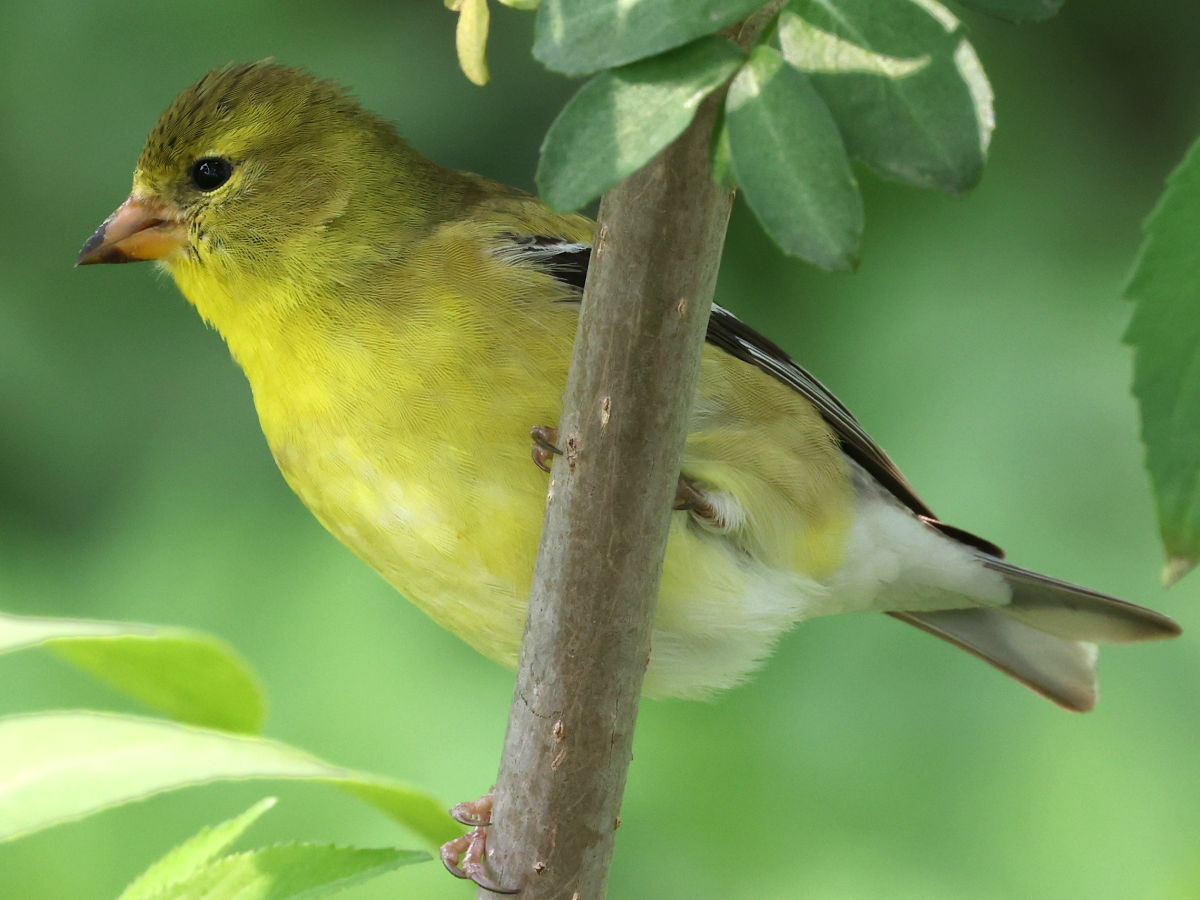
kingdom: Animalia
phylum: Chordata
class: Aves
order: Passeriformes
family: Fringillidae
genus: Spinus
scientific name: Spinus tristis
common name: American goldfinch
